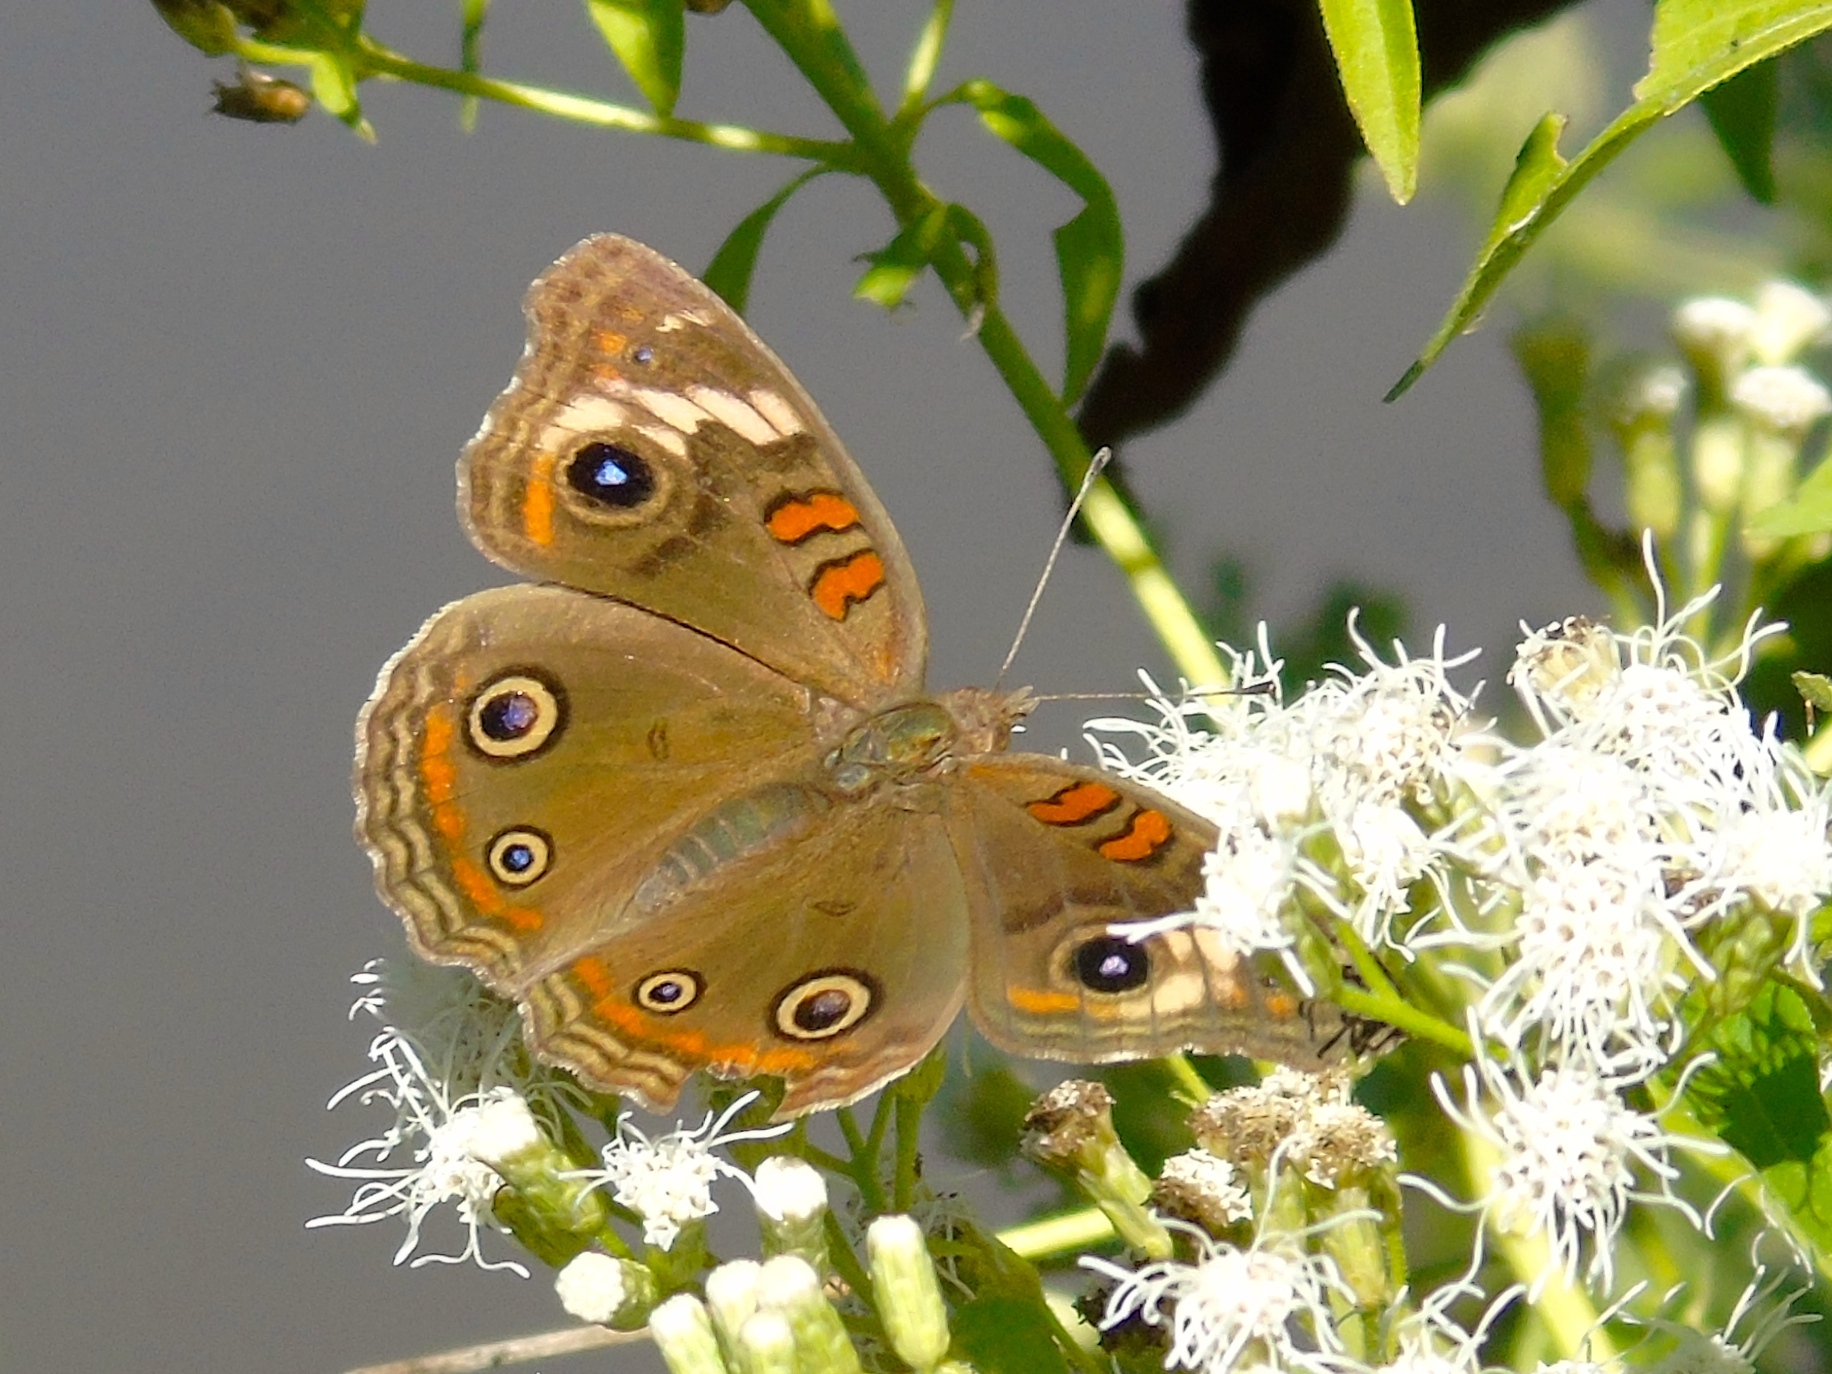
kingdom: Animalia
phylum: Arthropoda
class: Insecta
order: Lepidoptera
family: Nymphalidae
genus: Junonia
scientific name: Junonia coenia
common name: Common buckeye
